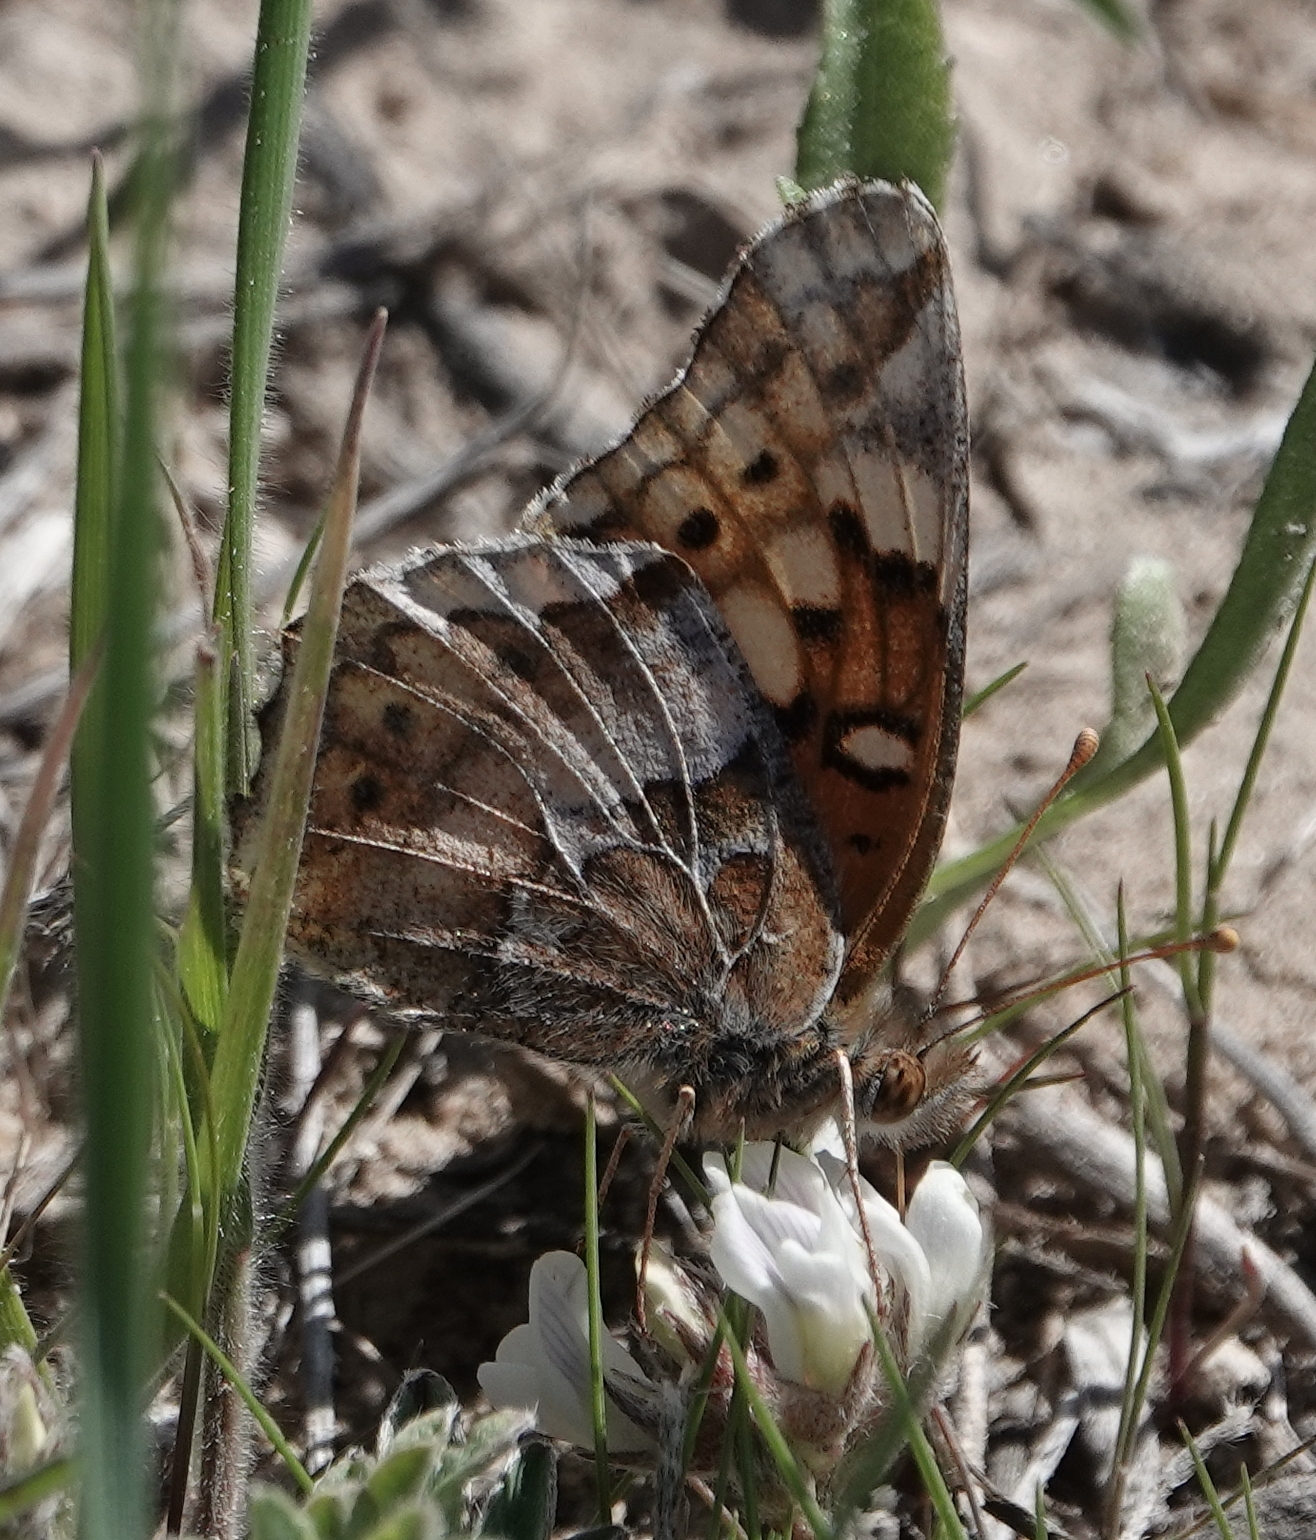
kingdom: Animalia
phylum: Arthropoda
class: Insecta
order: Lepidoptera
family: Nymphalidae
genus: Euptoieta
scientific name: Euptoieta claudia
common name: Variegated fritillary
